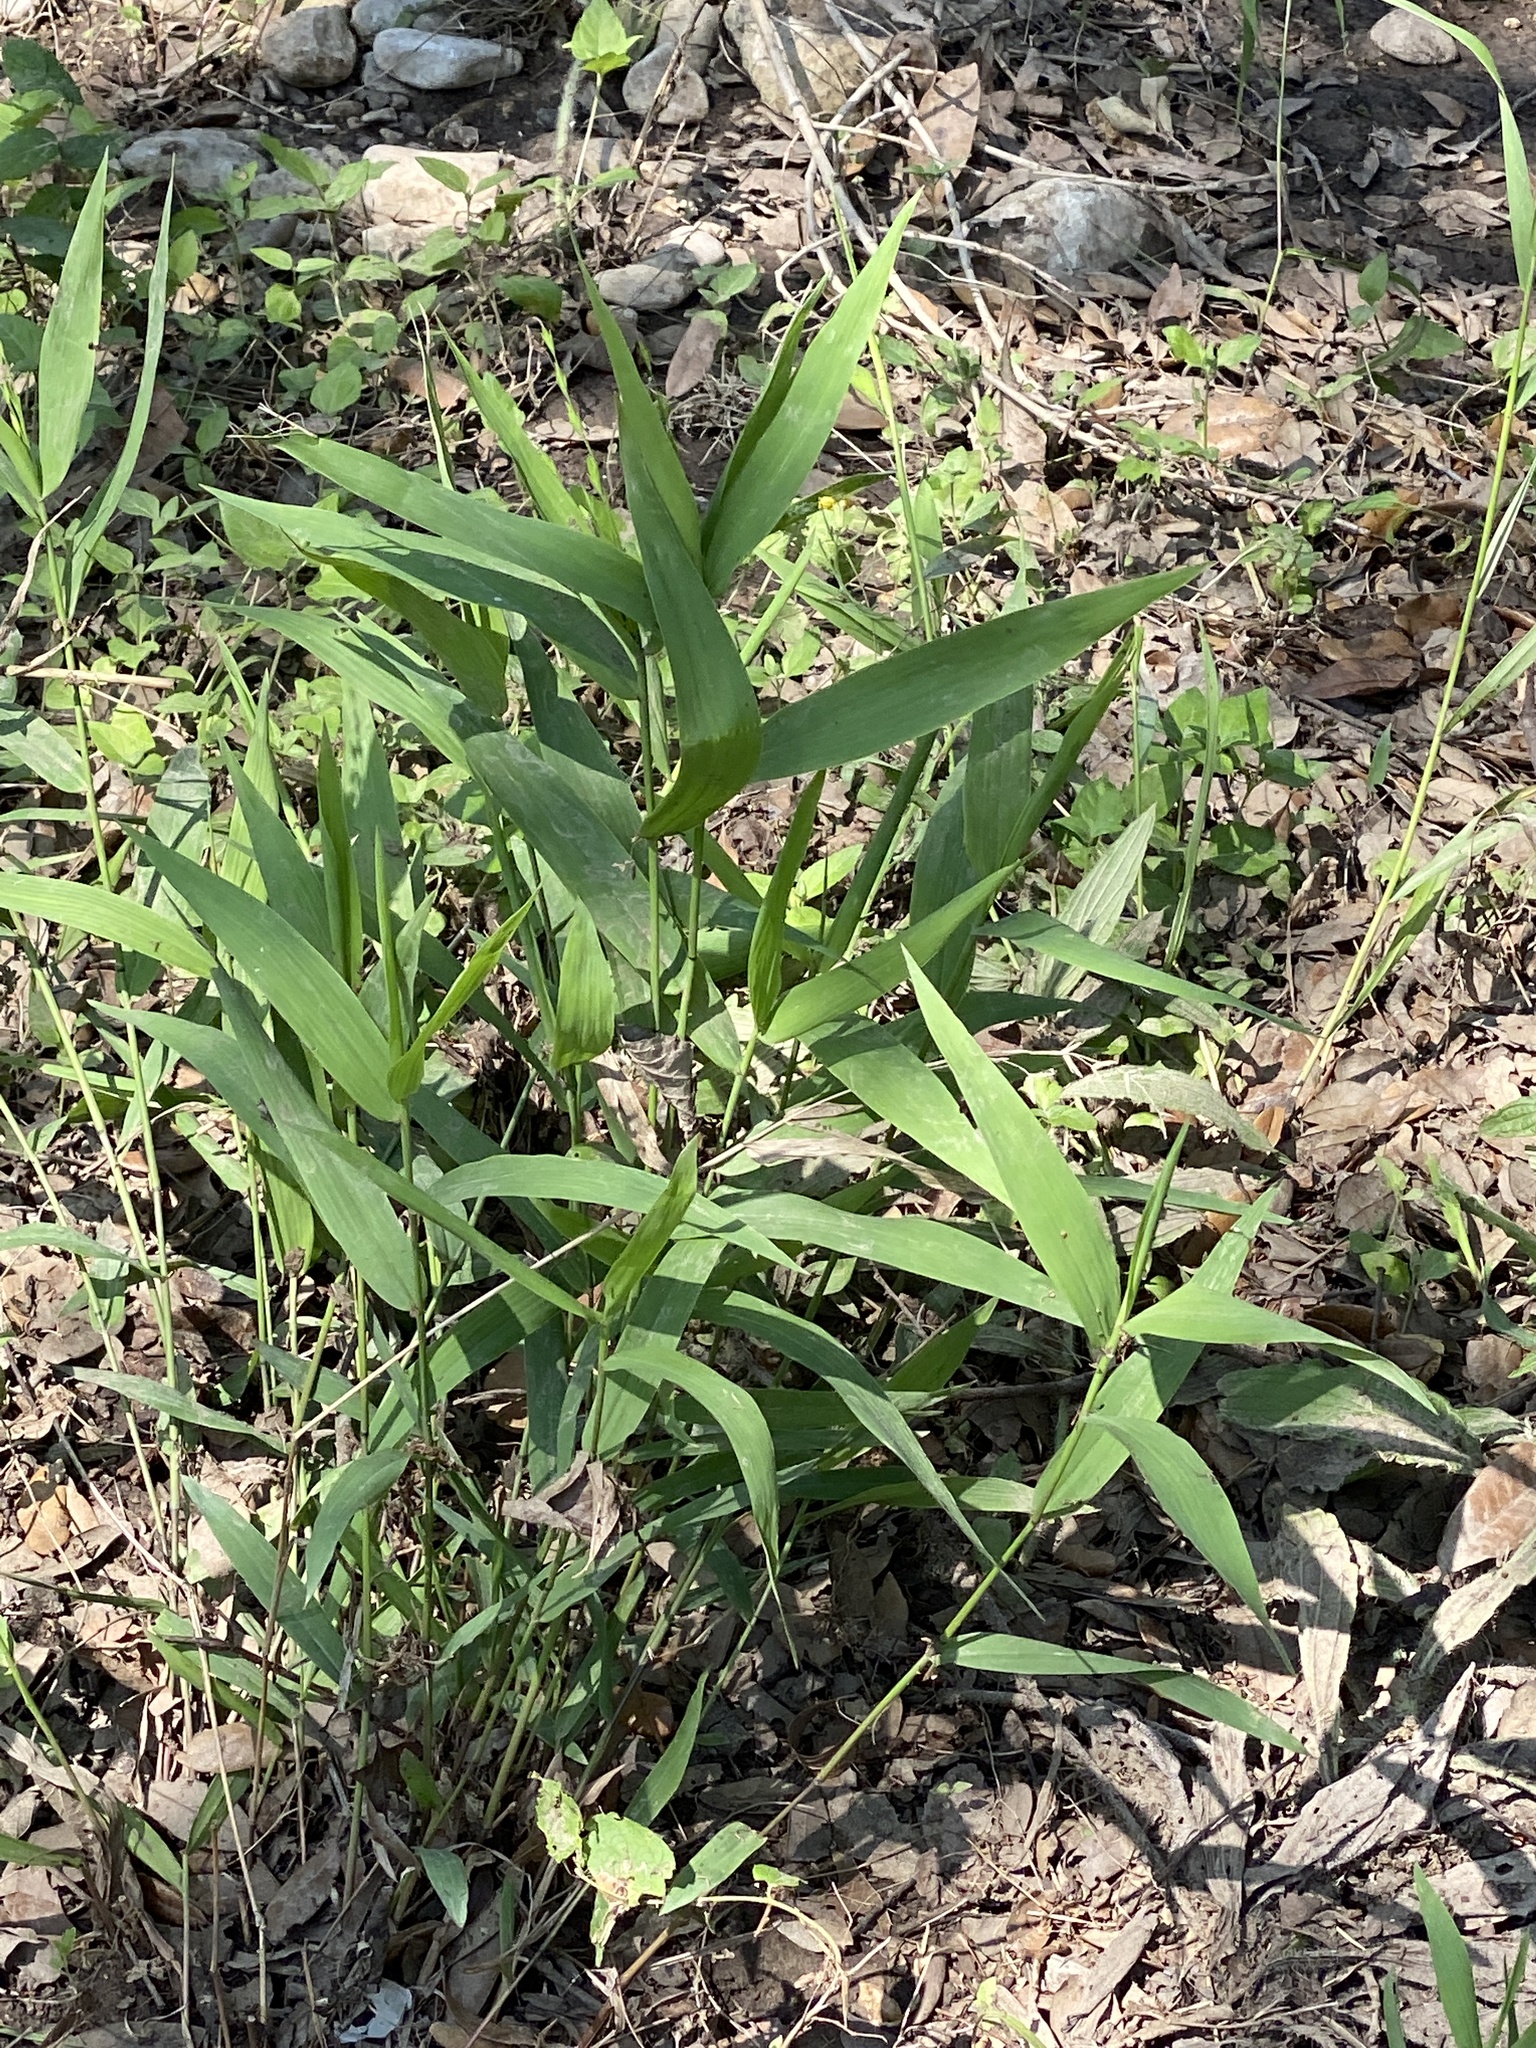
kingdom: Plantae
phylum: Tracheophyta
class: Liliopsida
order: Poales
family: Poaceae
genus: Chasmanthium
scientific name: Chasmanthium latifolium
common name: Broad-leaved chasmanthium
